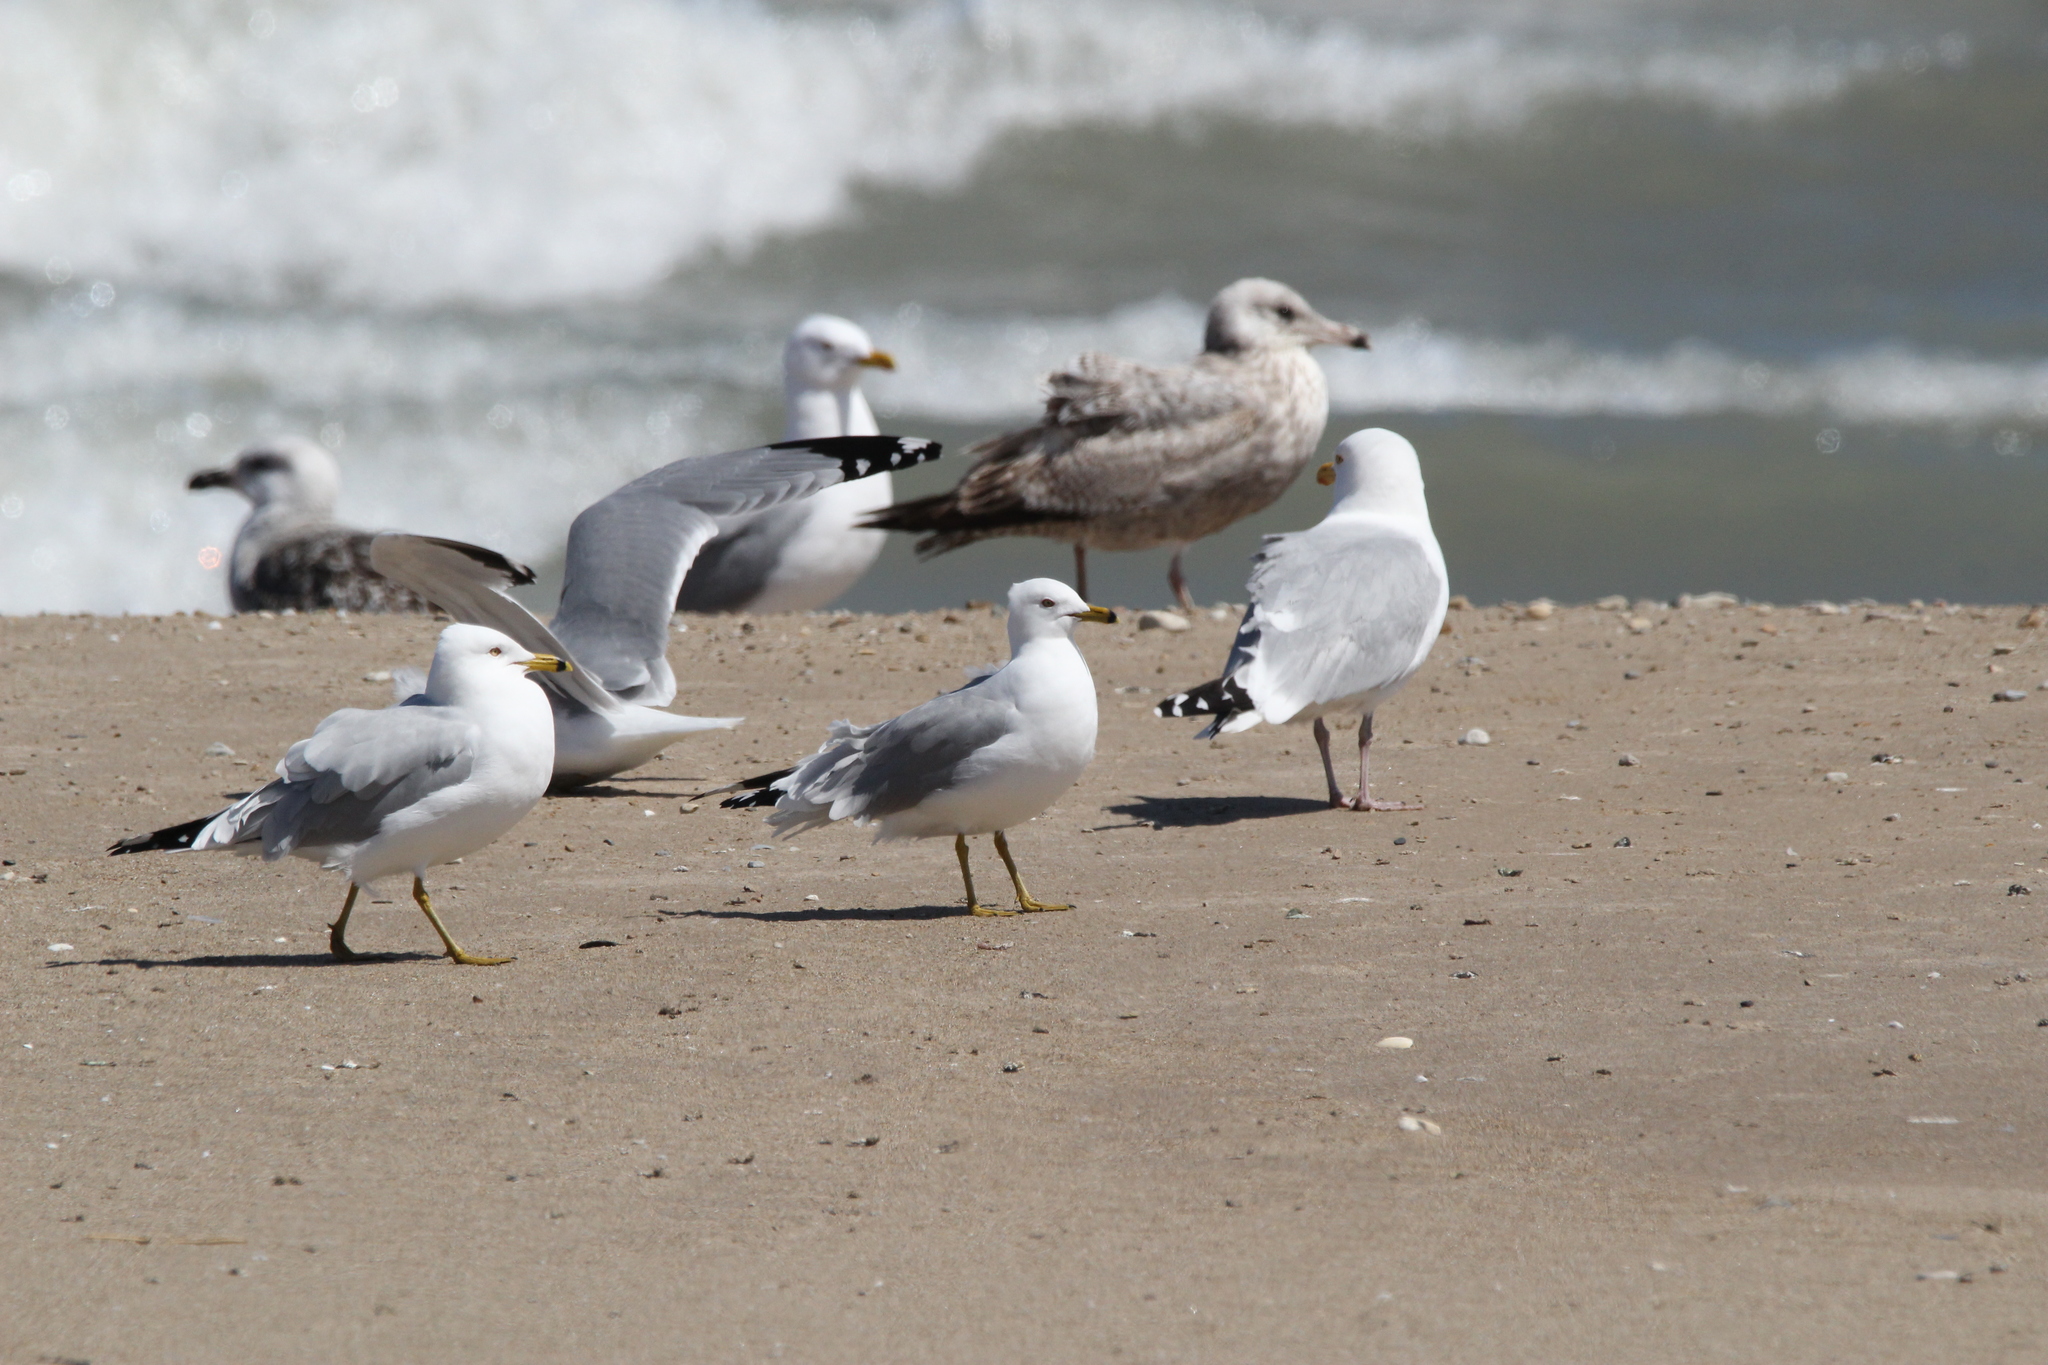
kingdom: Animalia
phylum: Chordata
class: Aves
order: Charadriiformes
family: Laridae
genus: Larus
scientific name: Larus delawarensis
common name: Ring-billed gull
